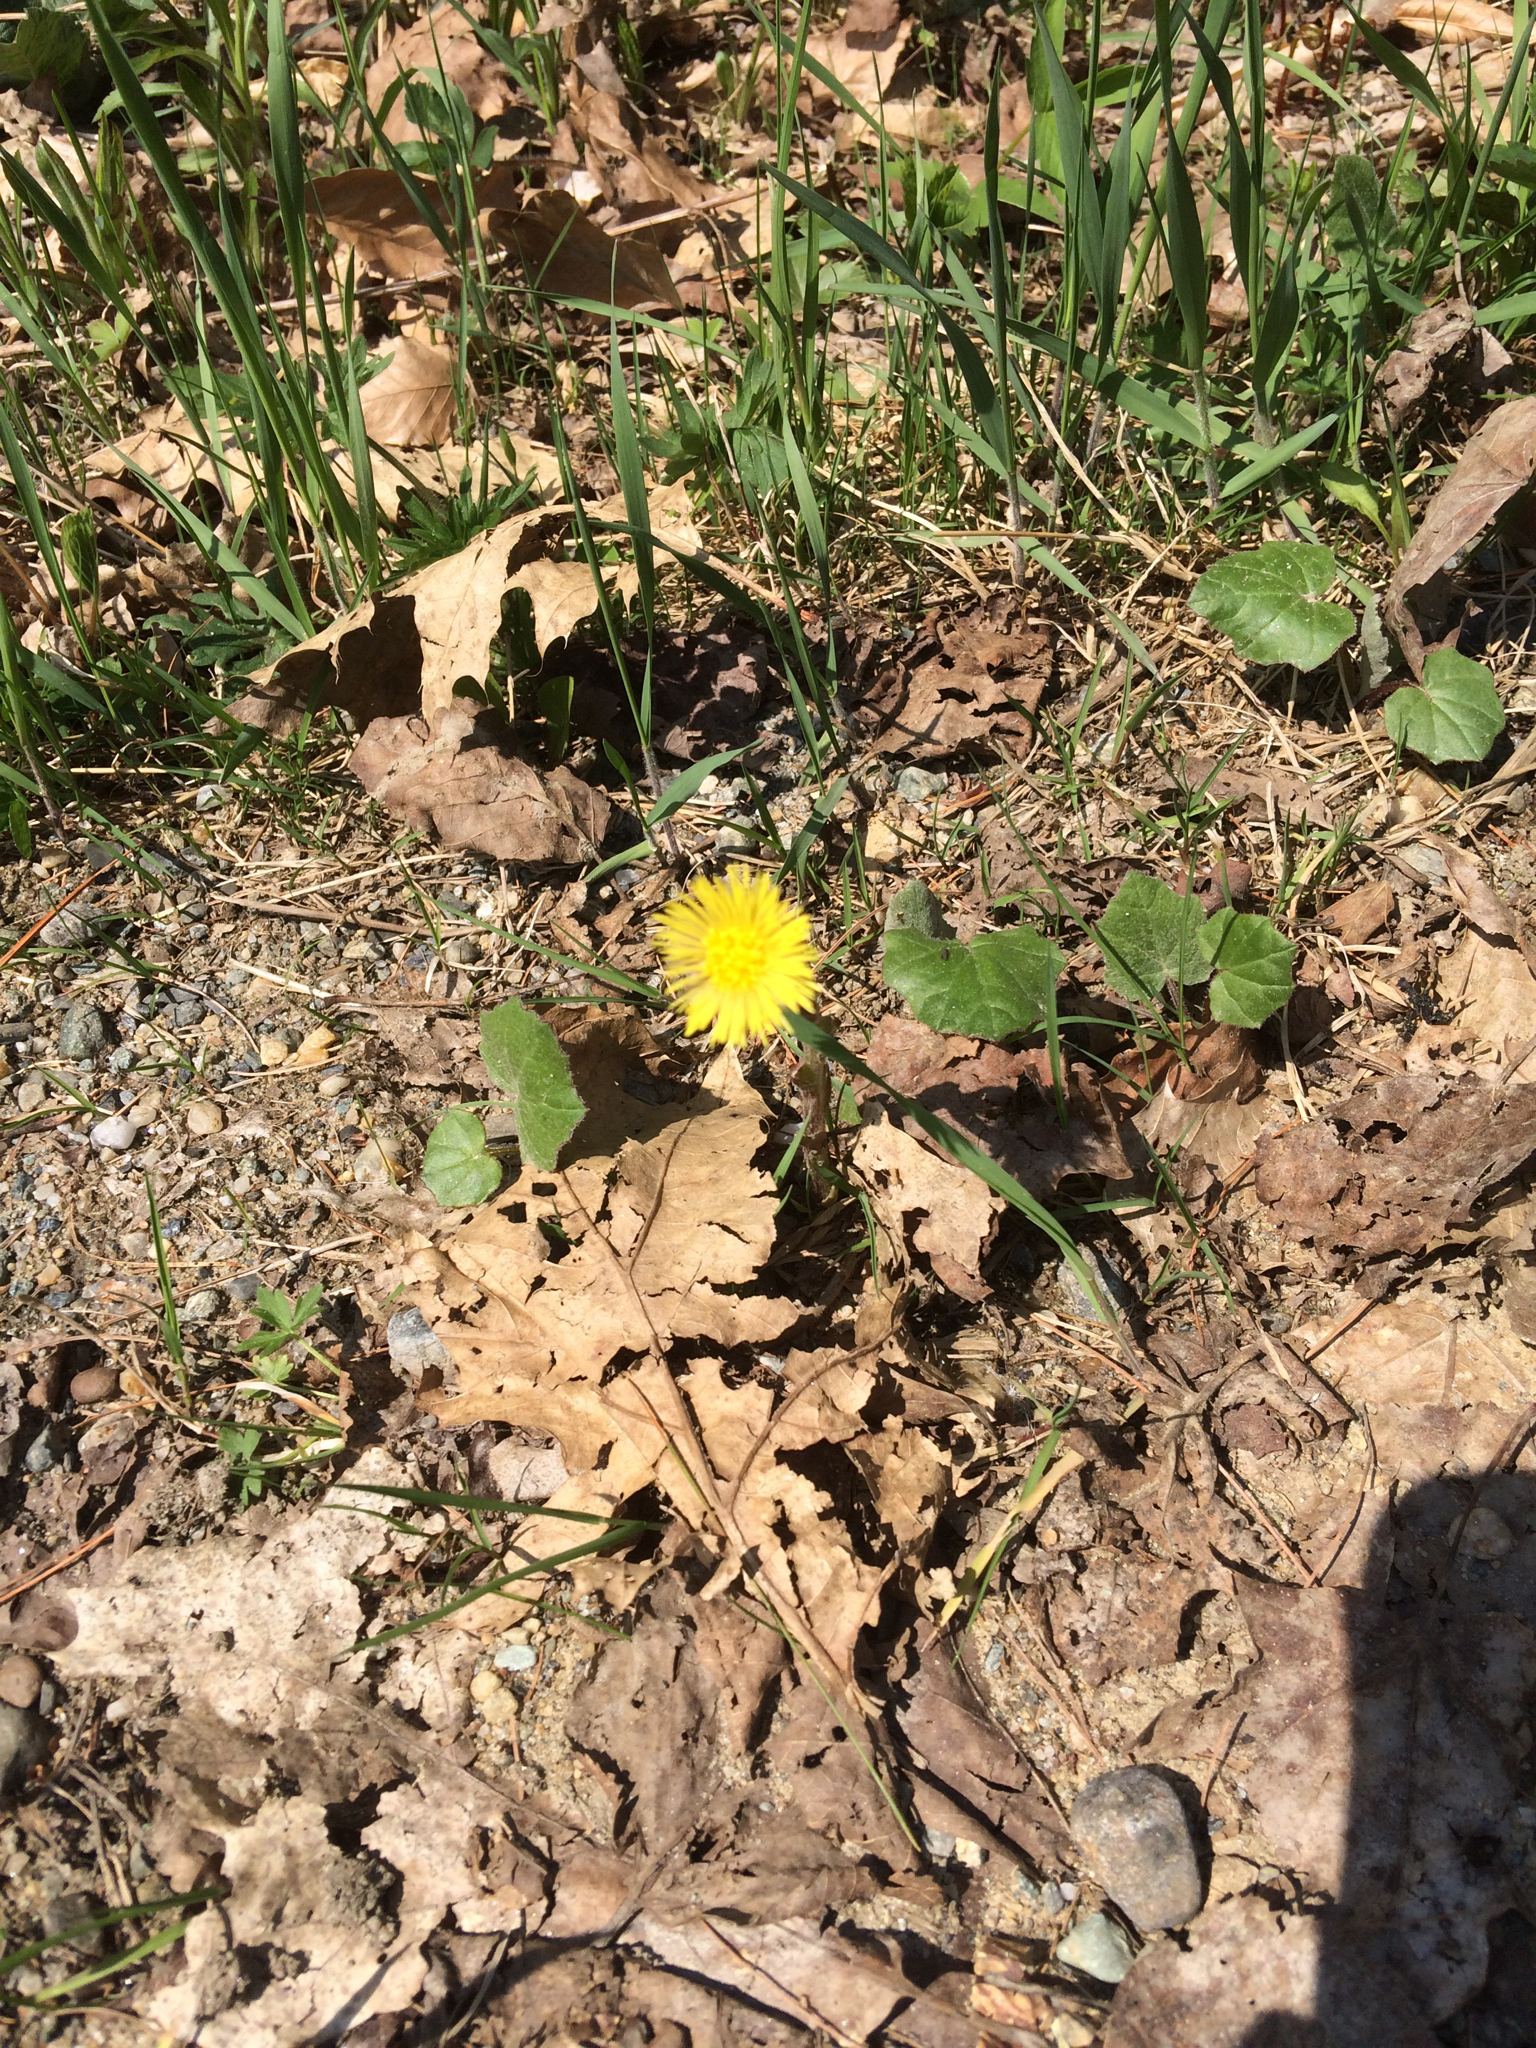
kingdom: Plantae
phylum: Tracheophyta
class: Magnoliopsida
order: Asterales
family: Asteraceae
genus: Tussilago
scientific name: Tussilago farfara
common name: Coltsfoot
